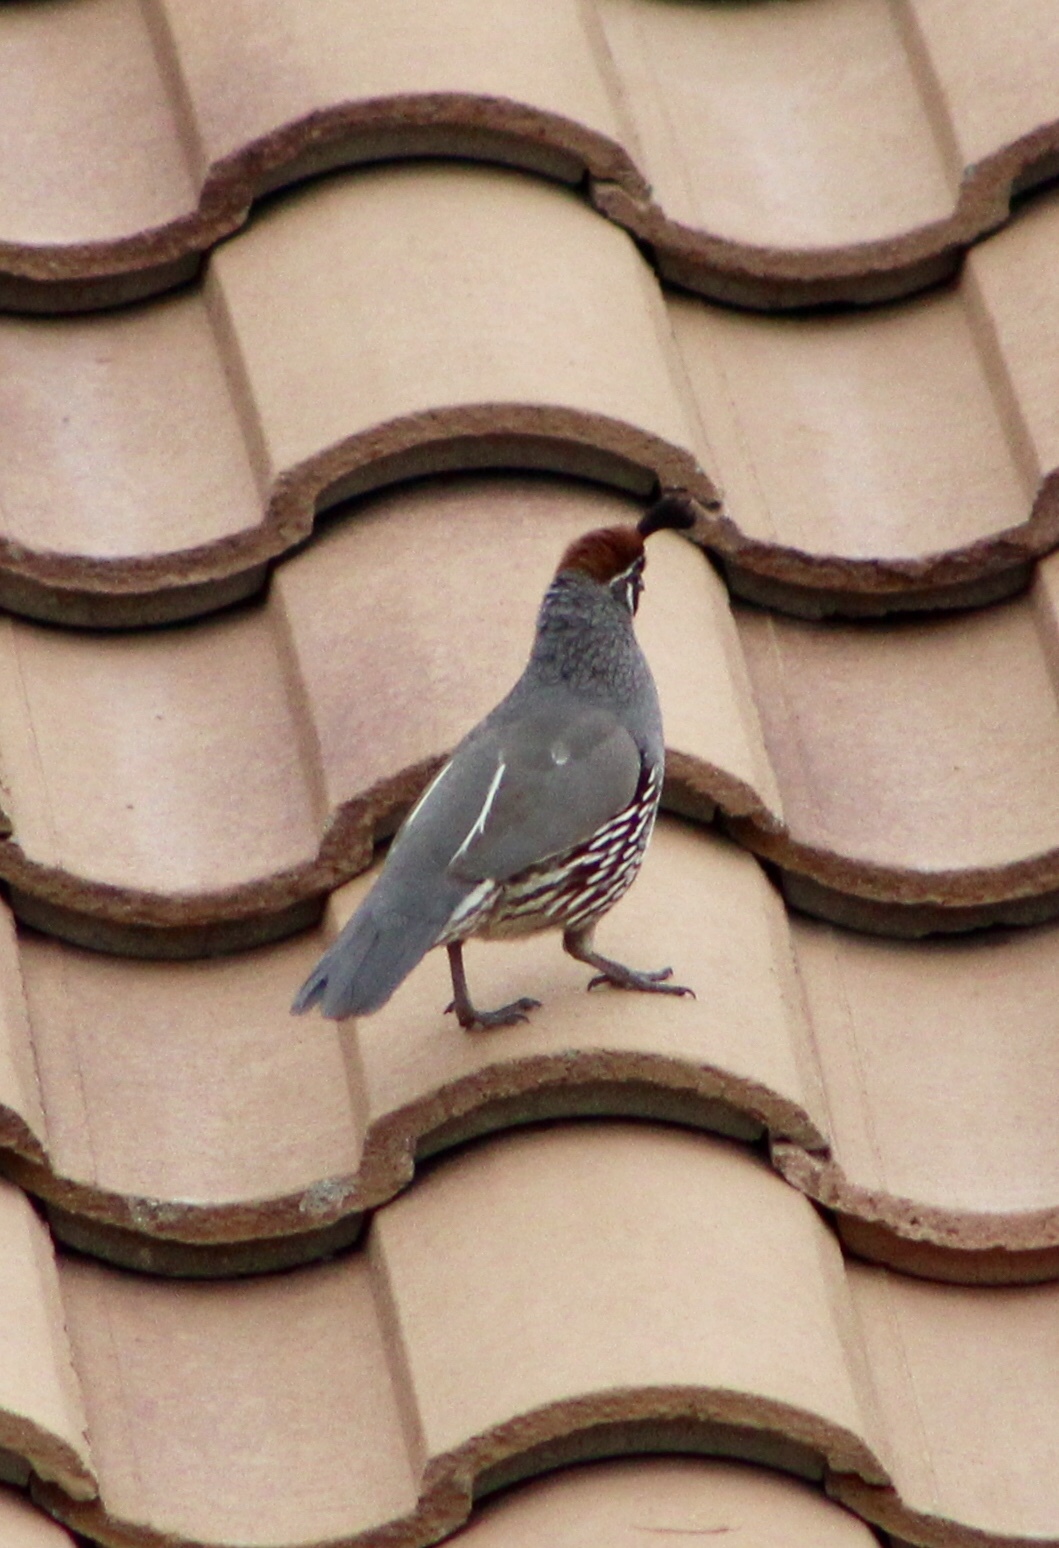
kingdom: Animalia
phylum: Chordata
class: Aves
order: Galliformes
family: Odontophoridae
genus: Callipepla
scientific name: Callipepla gambelii
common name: Gambel's quail
